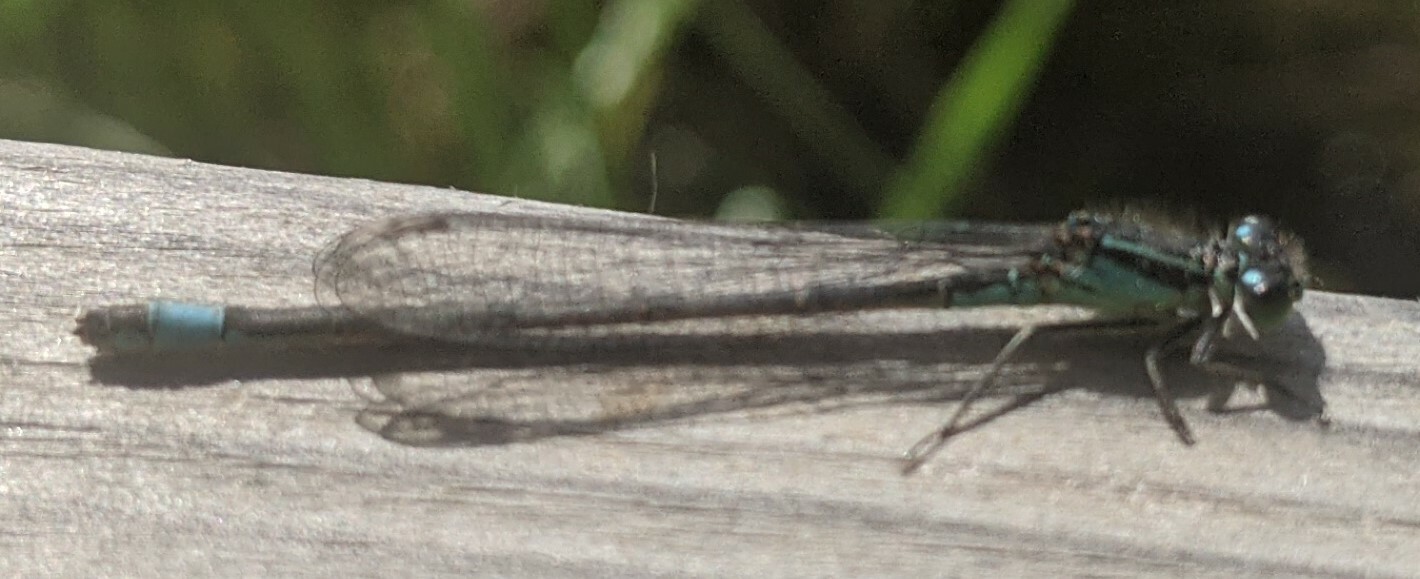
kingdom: Animalia
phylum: Arthropoda
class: Insecta
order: Odonata
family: Coenagrionidae
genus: Ischnura
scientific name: Ischnura elegans
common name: Blue-tailed damselfly
